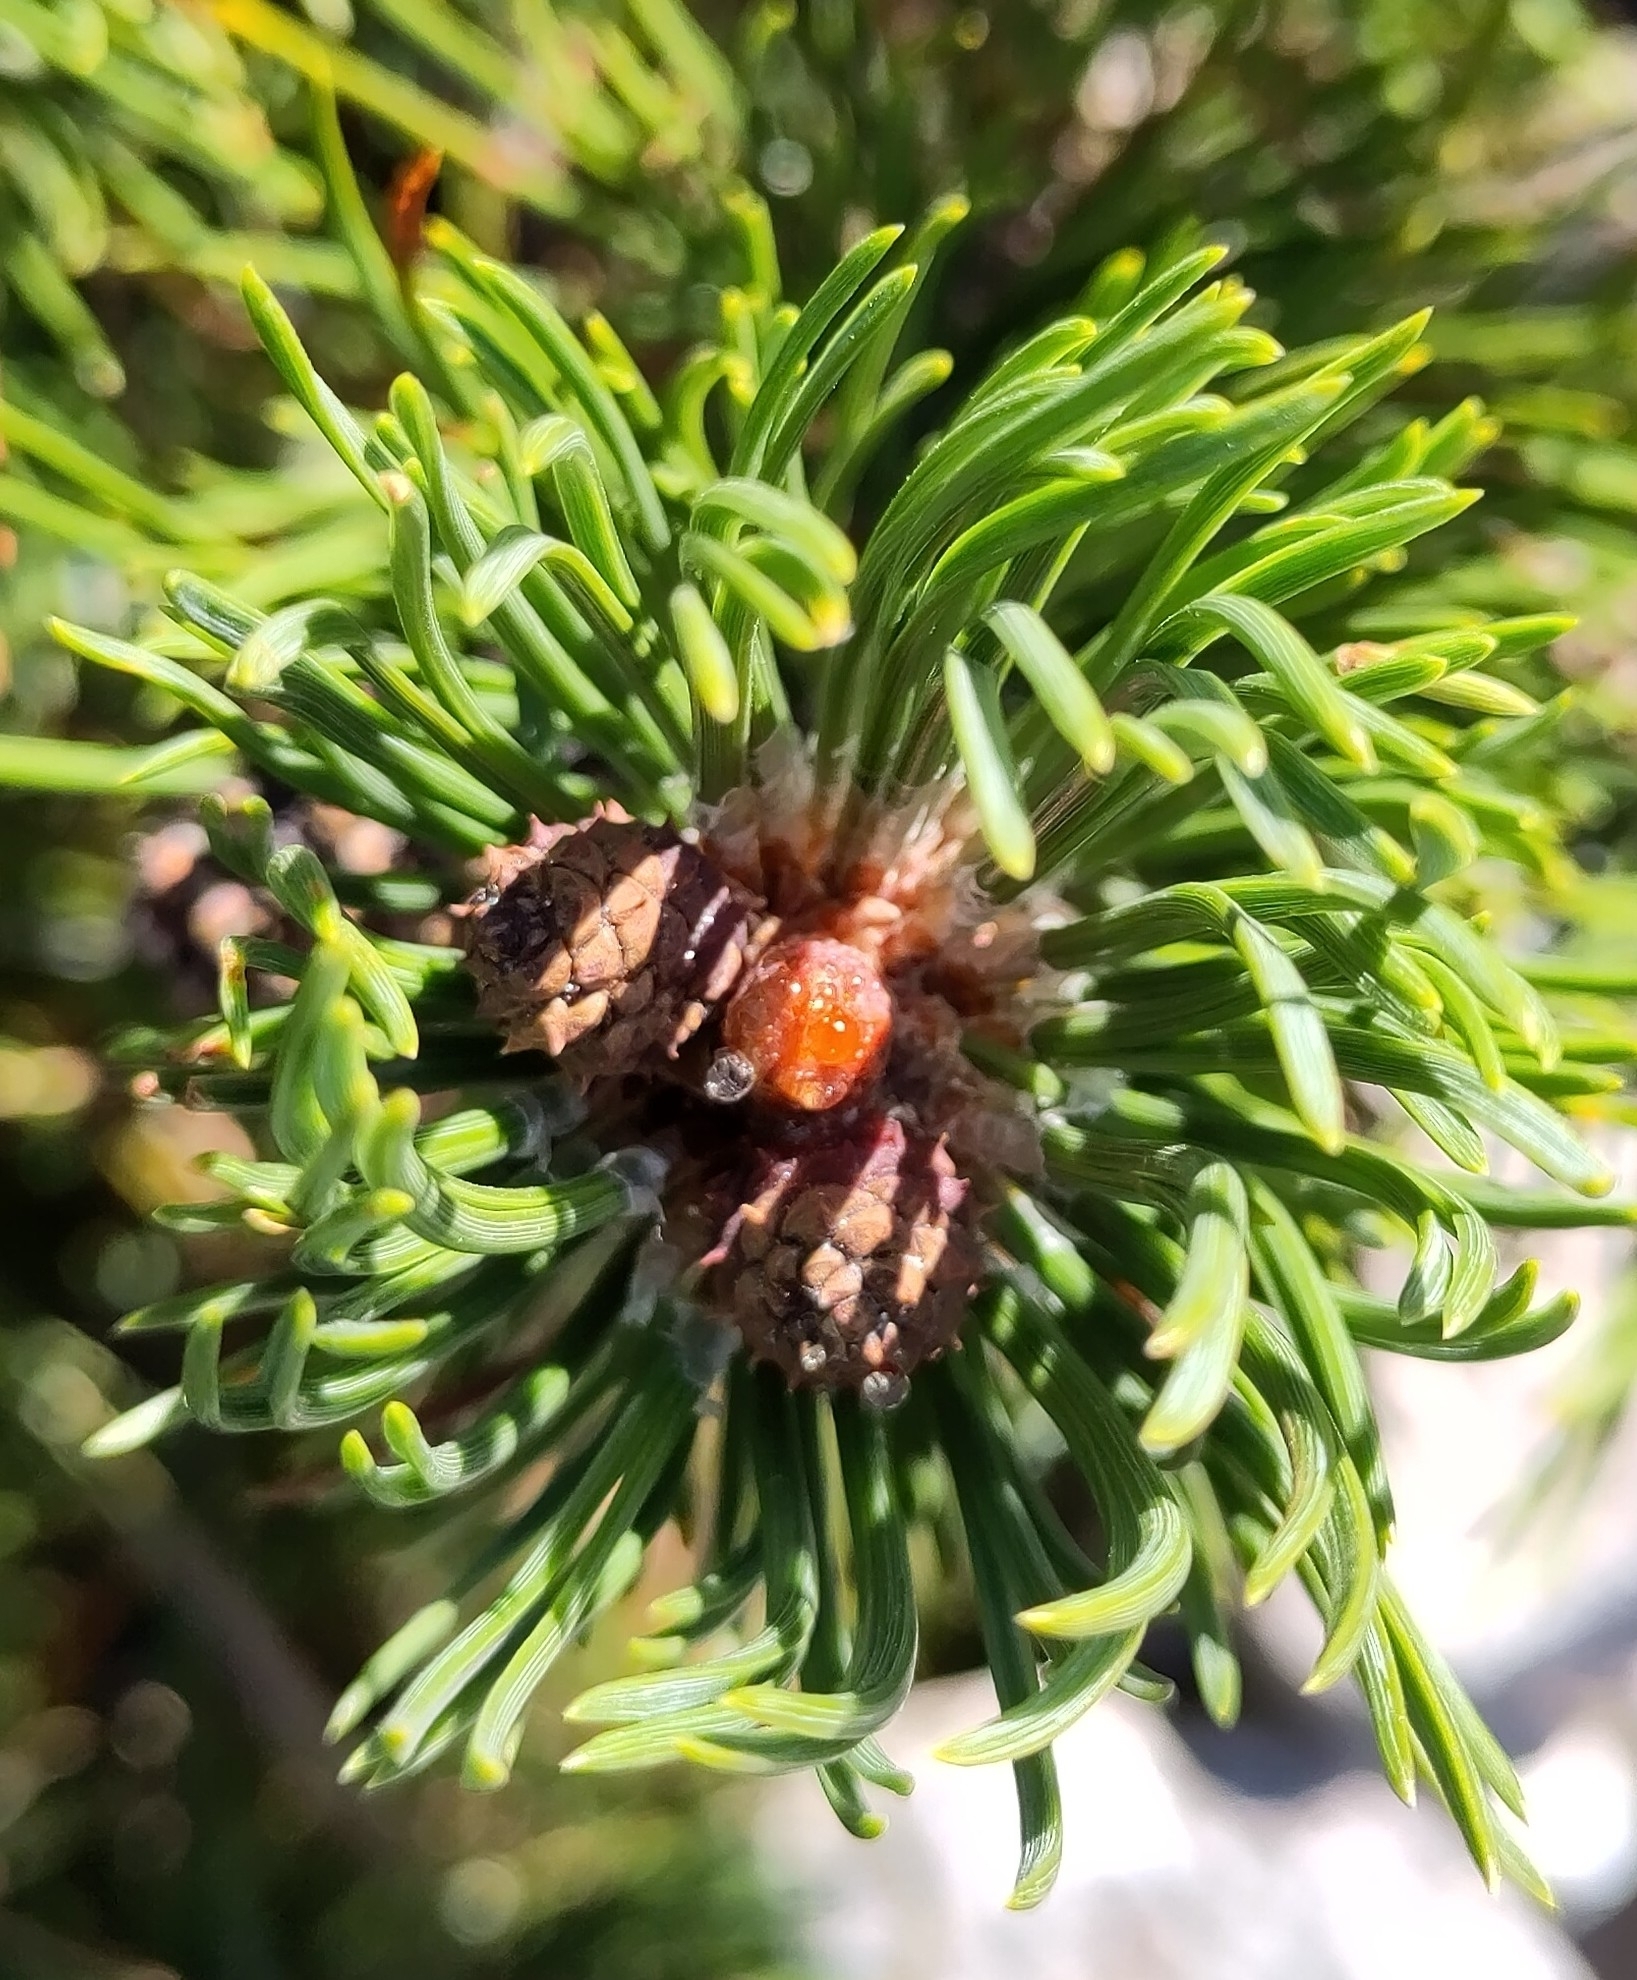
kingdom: Plantae
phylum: Tracheophyta
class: Pinopsida
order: Pinales
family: Pinaceae
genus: Pinus
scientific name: Pinus mugo
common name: Mugo pine
